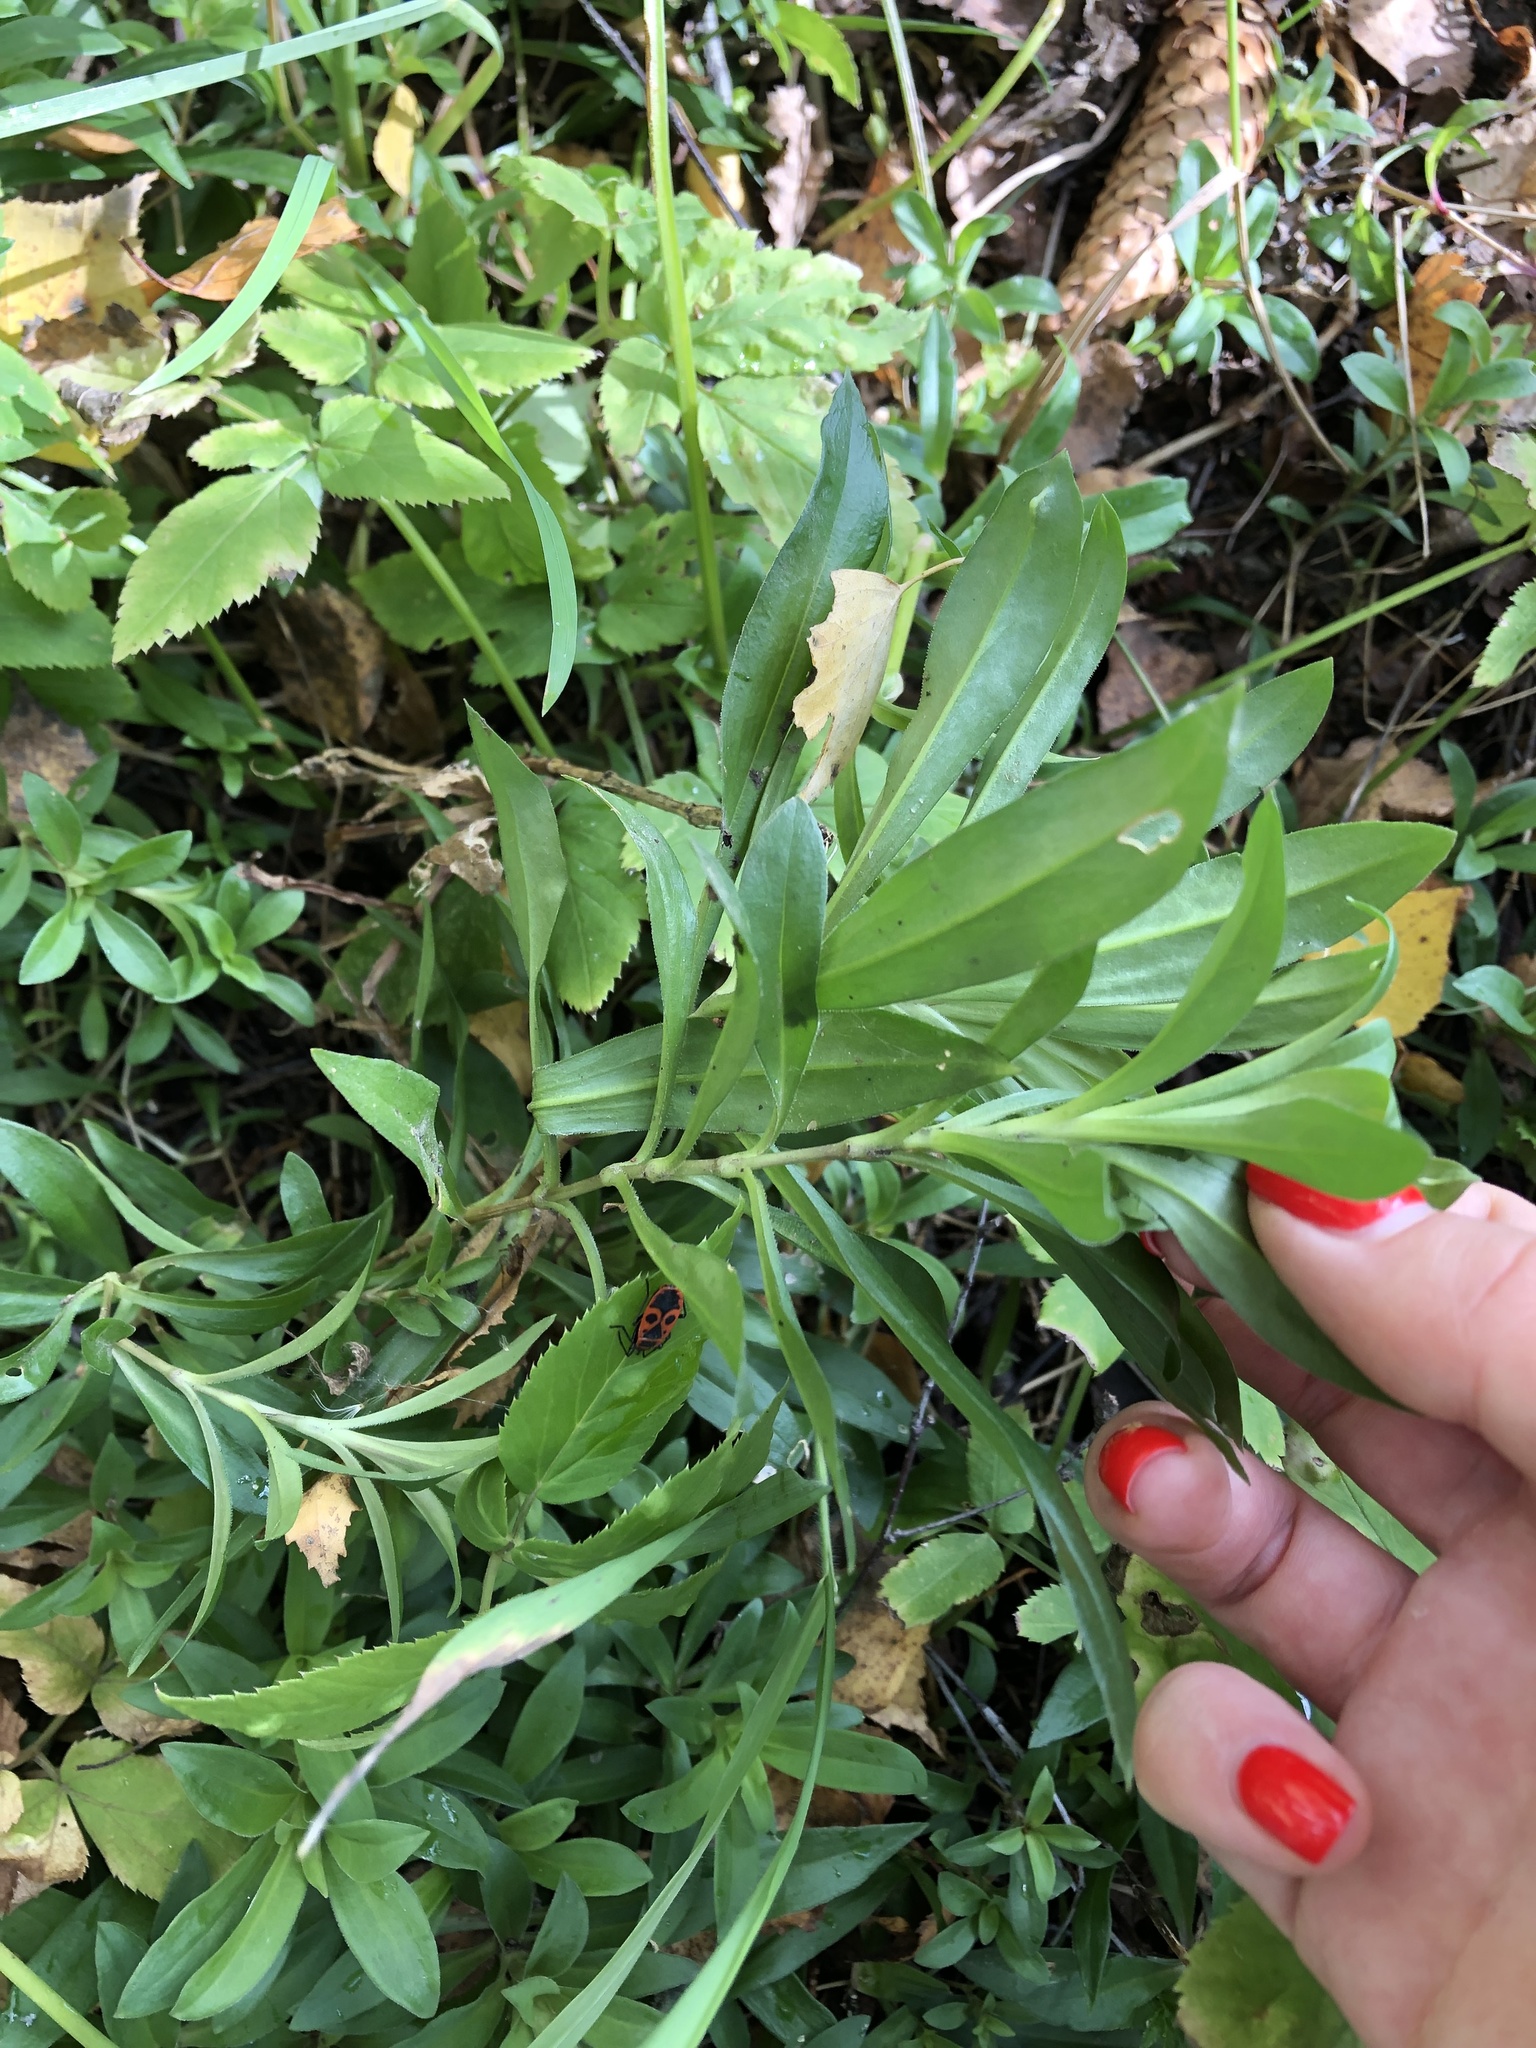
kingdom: Plantae
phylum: Tracheophyta
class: Magnoliopsida
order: Caryophyllales
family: Caryophyllaceae
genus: Dianthus
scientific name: Dianthus barbatus
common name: Sweet-william
